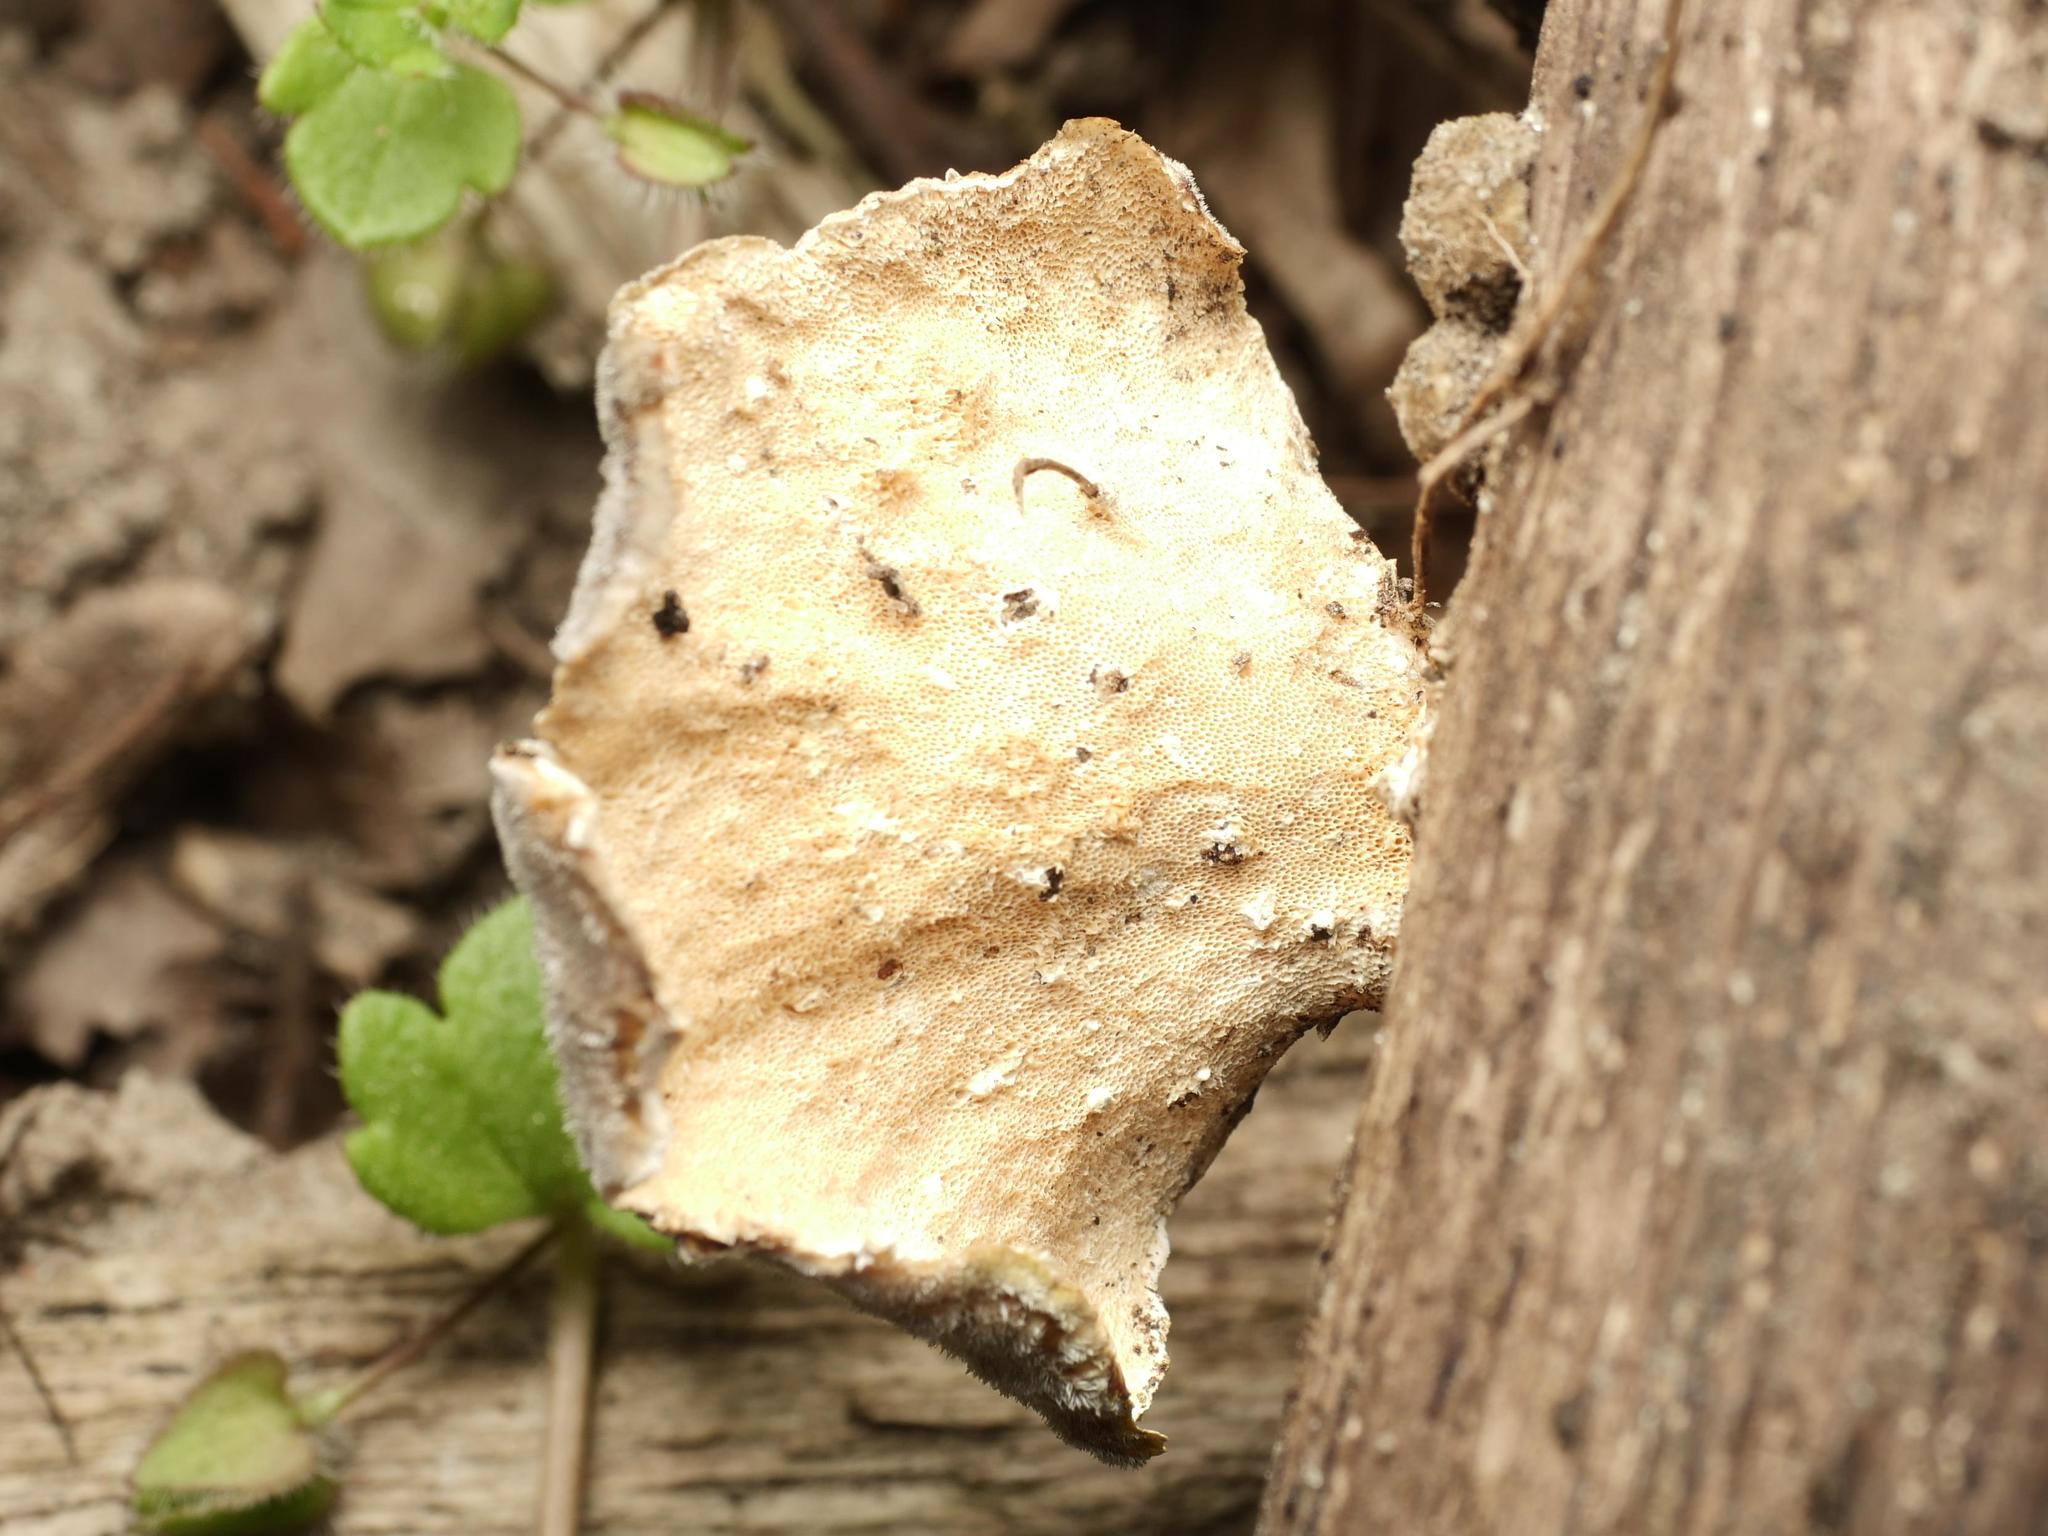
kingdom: Fungi
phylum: Basidiomycota
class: Agaricomycetes
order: Polyporales
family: Polyporaceae
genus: Trametes
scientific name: Trametes versicolor
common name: Turkeytail
